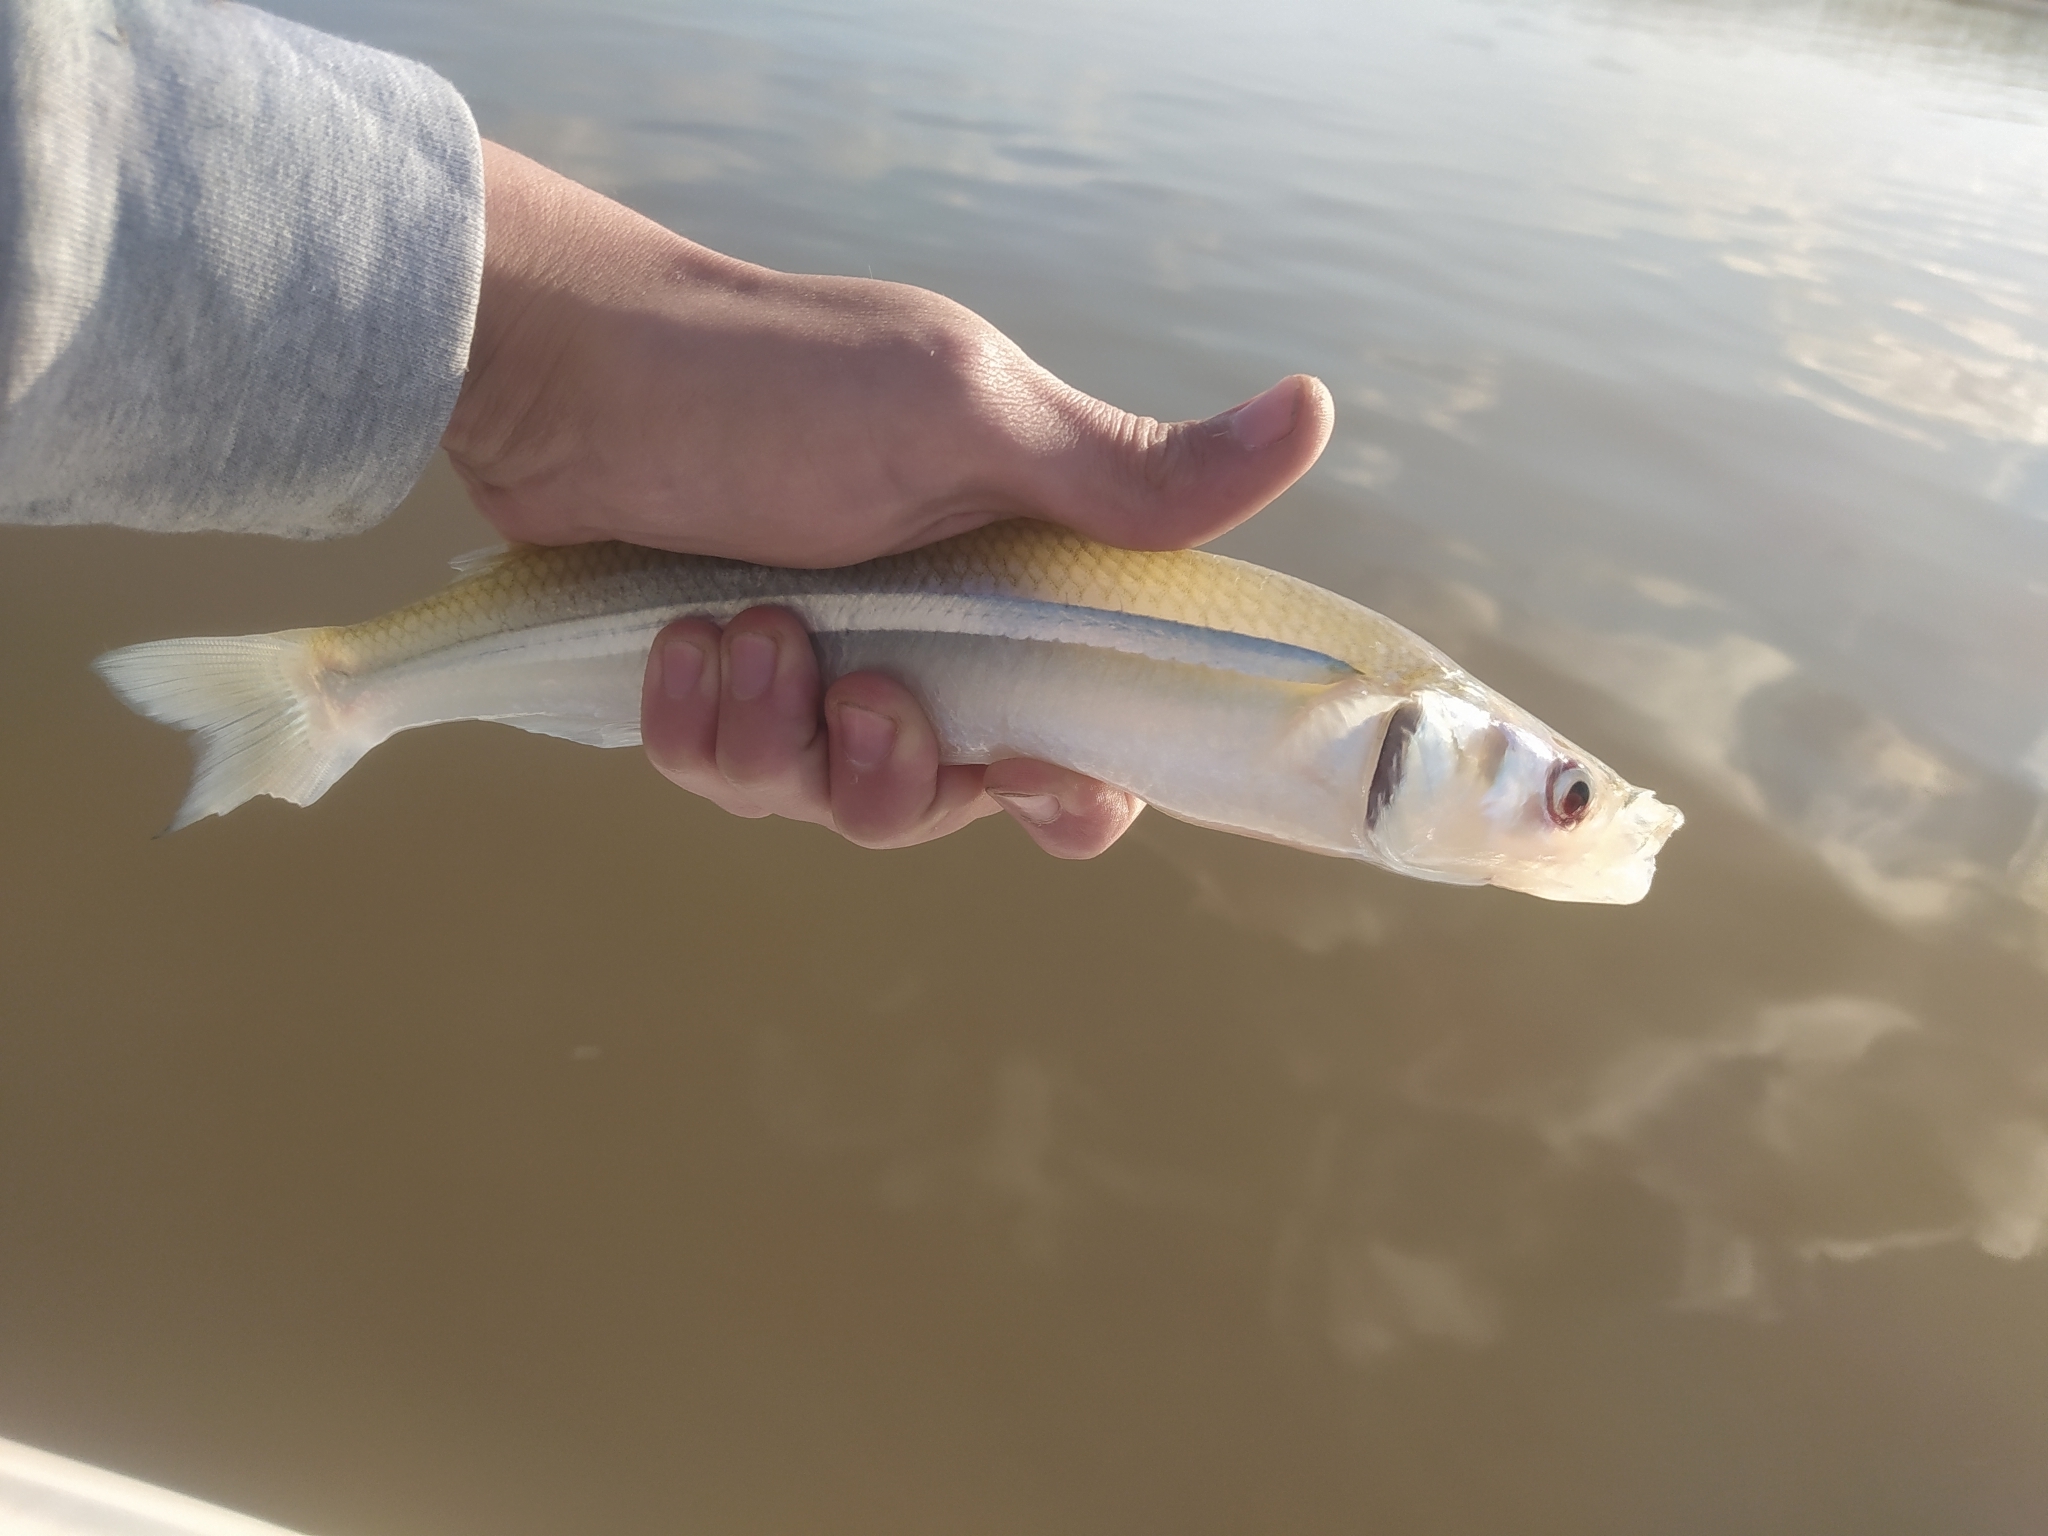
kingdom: Animalia
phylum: Chordata
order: Atheriniformes
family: Atherinopsidae
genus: Odontesthes
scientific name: Odontesthes bonariensis
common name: Argentinian silverside
